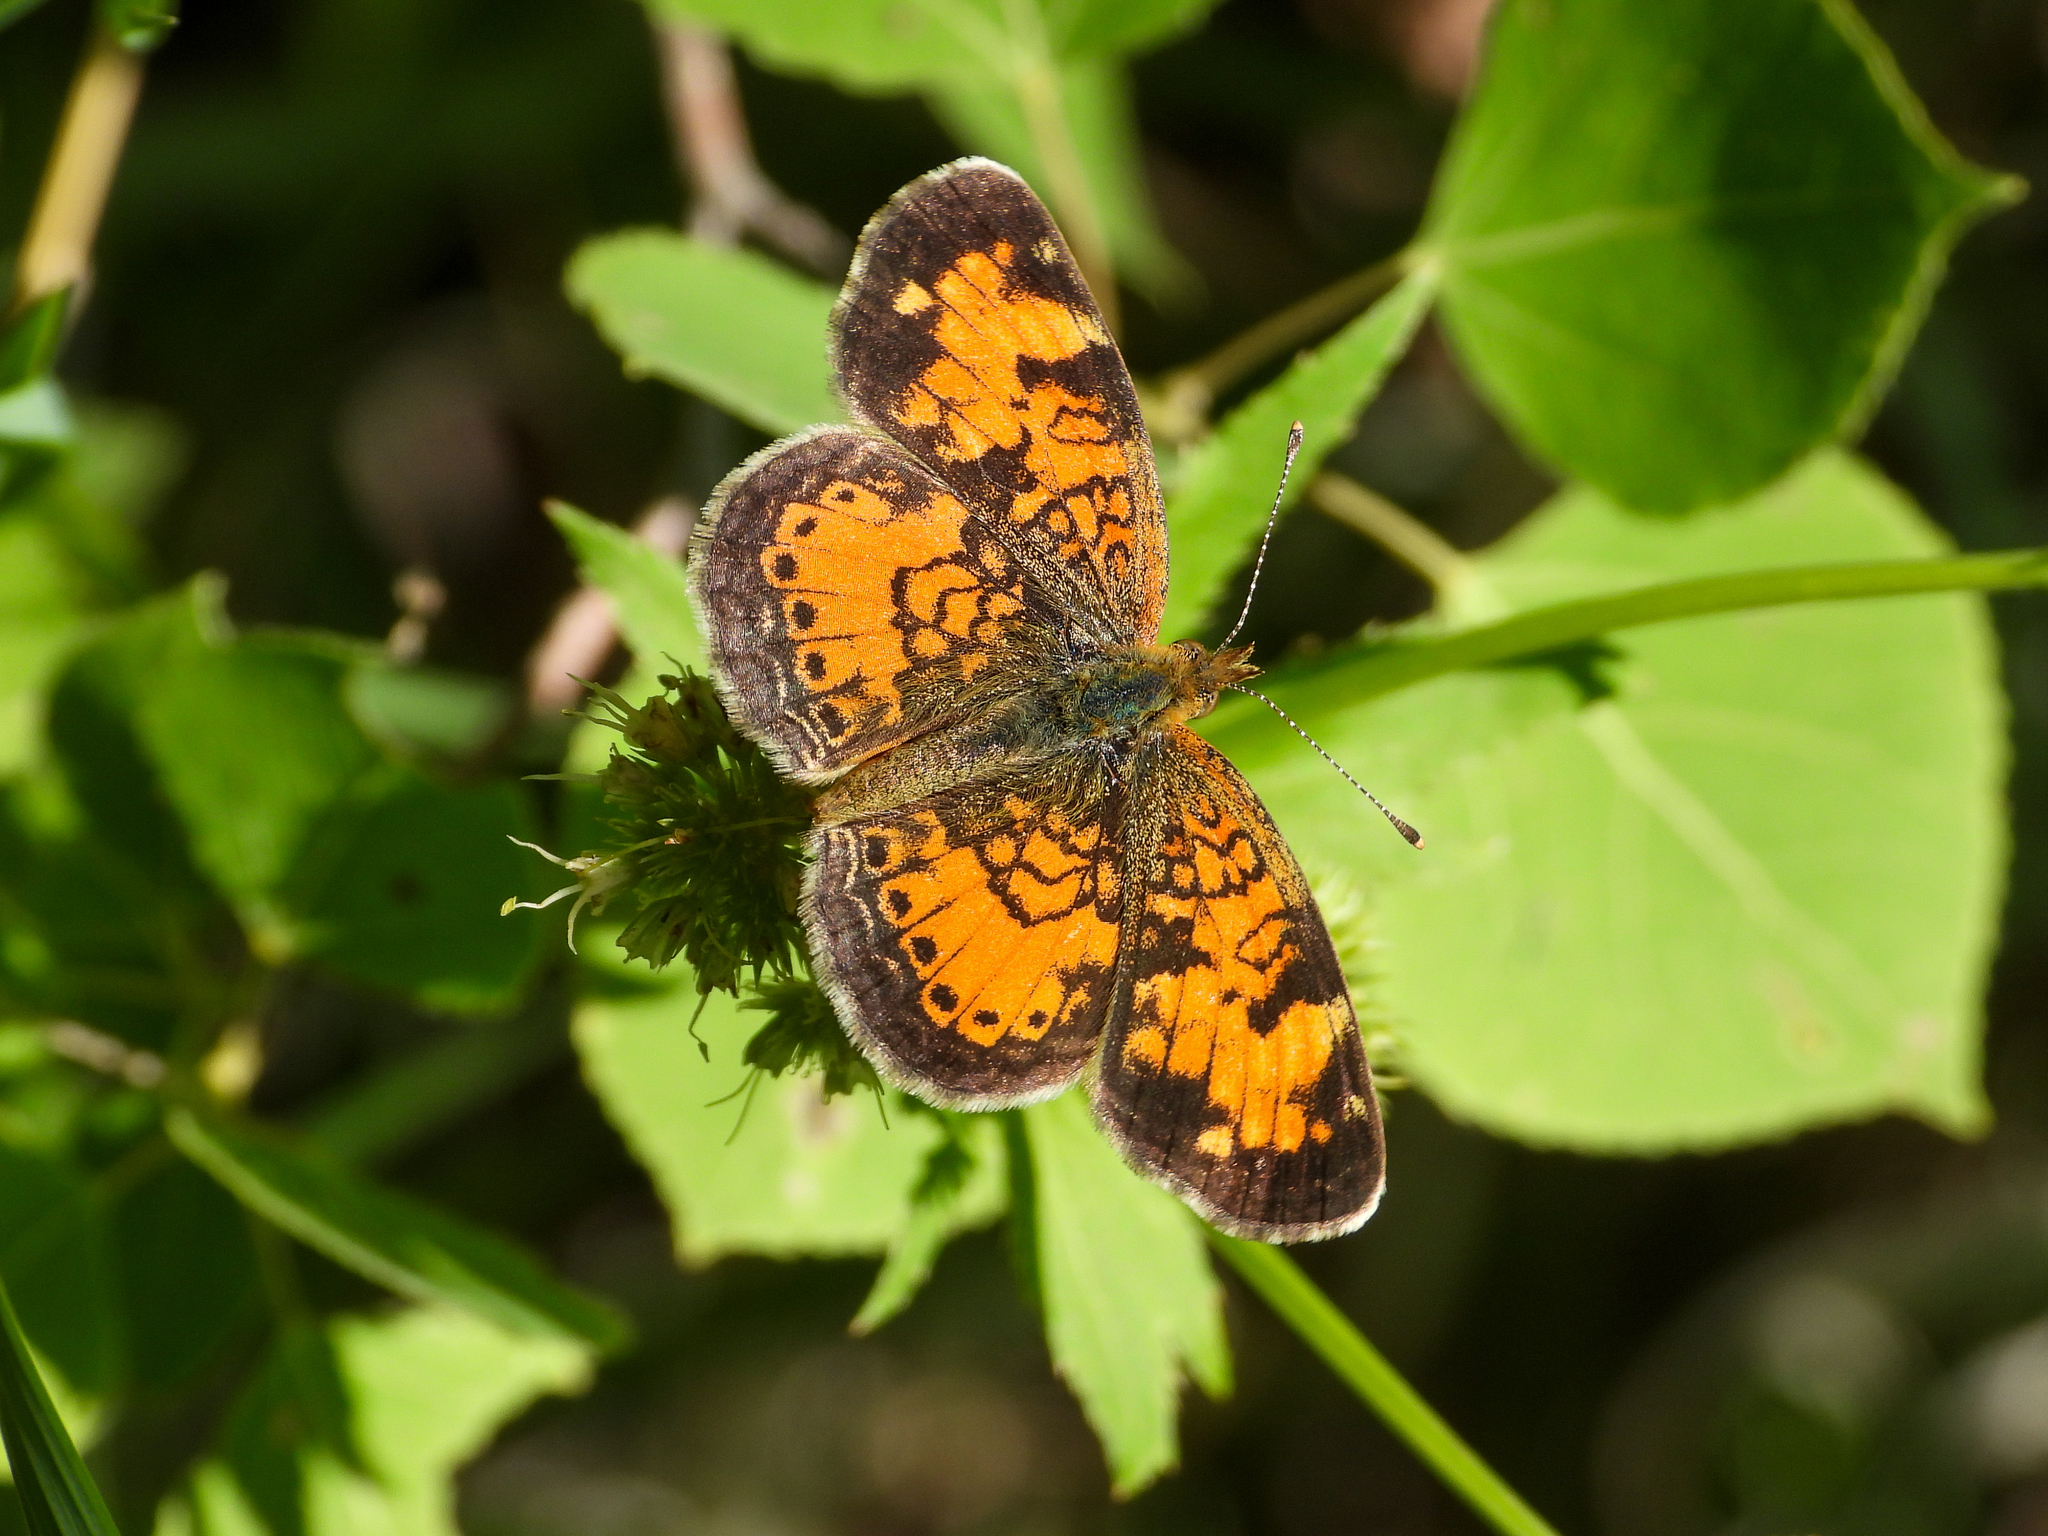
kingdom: Animalia
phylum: Arthropoda
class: Insecta
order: Lepidoptera
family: Nymphalidae
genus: Phyciodes
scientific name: Phyciodes tharos
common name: Pearl crescent
